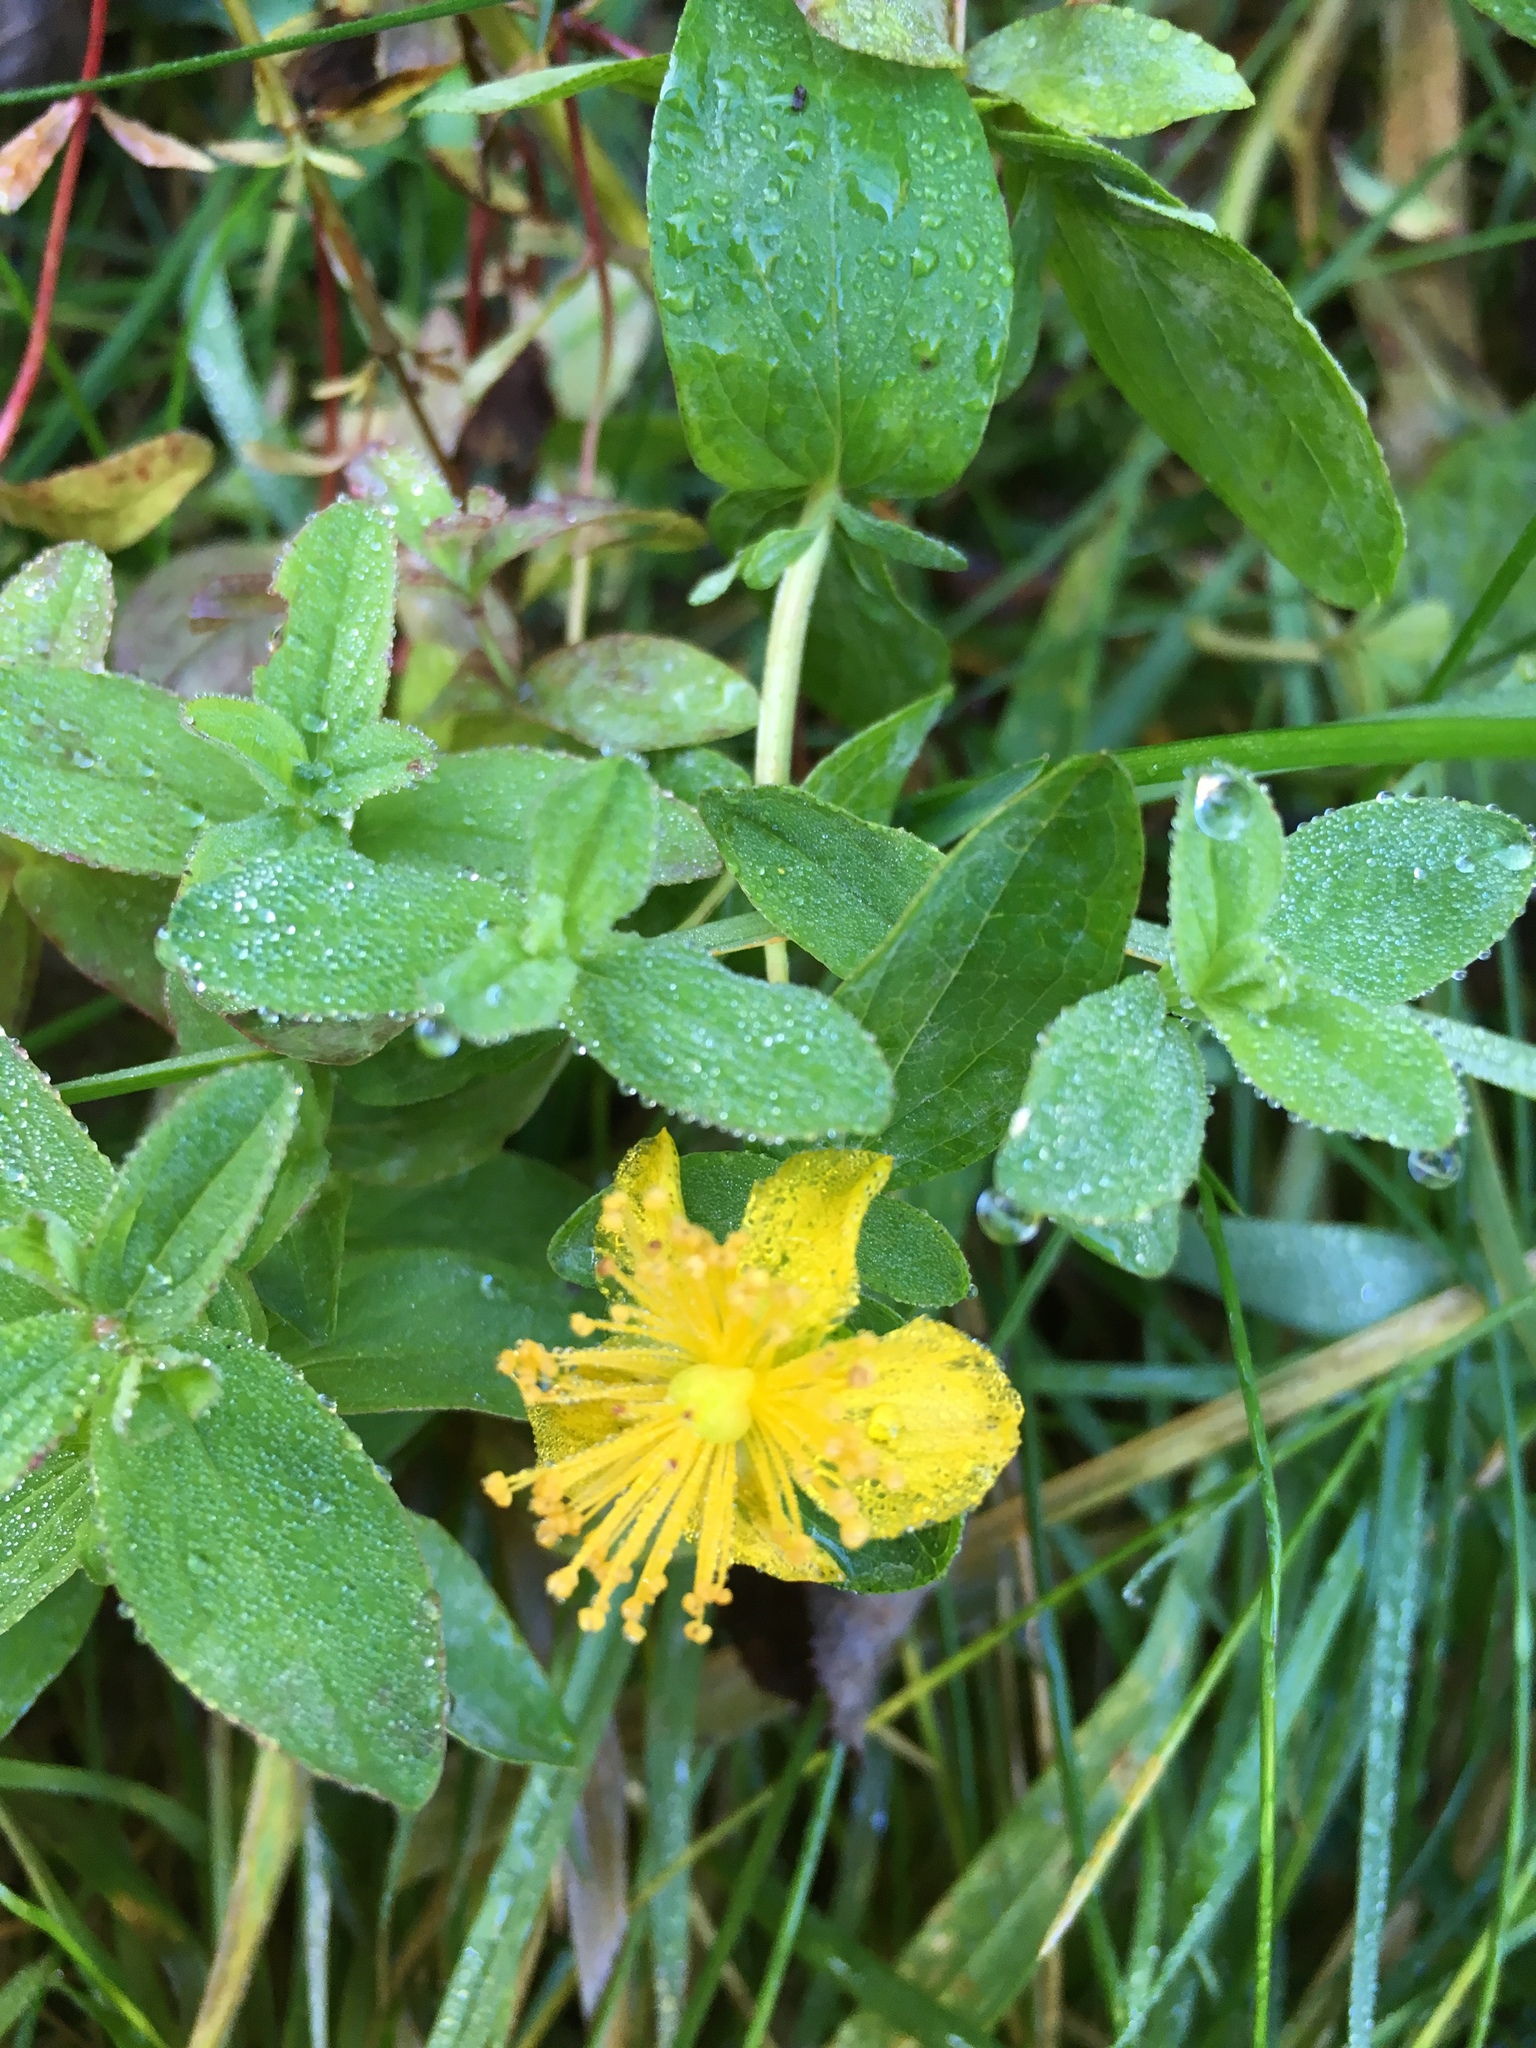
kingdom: Plantae
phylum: Tracheophyta
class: Magnoliopsida
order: Malpighiales
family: Hypericaceae
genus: Hypericum
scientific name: Hypericum calycinum
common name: Rose-of-sharon
